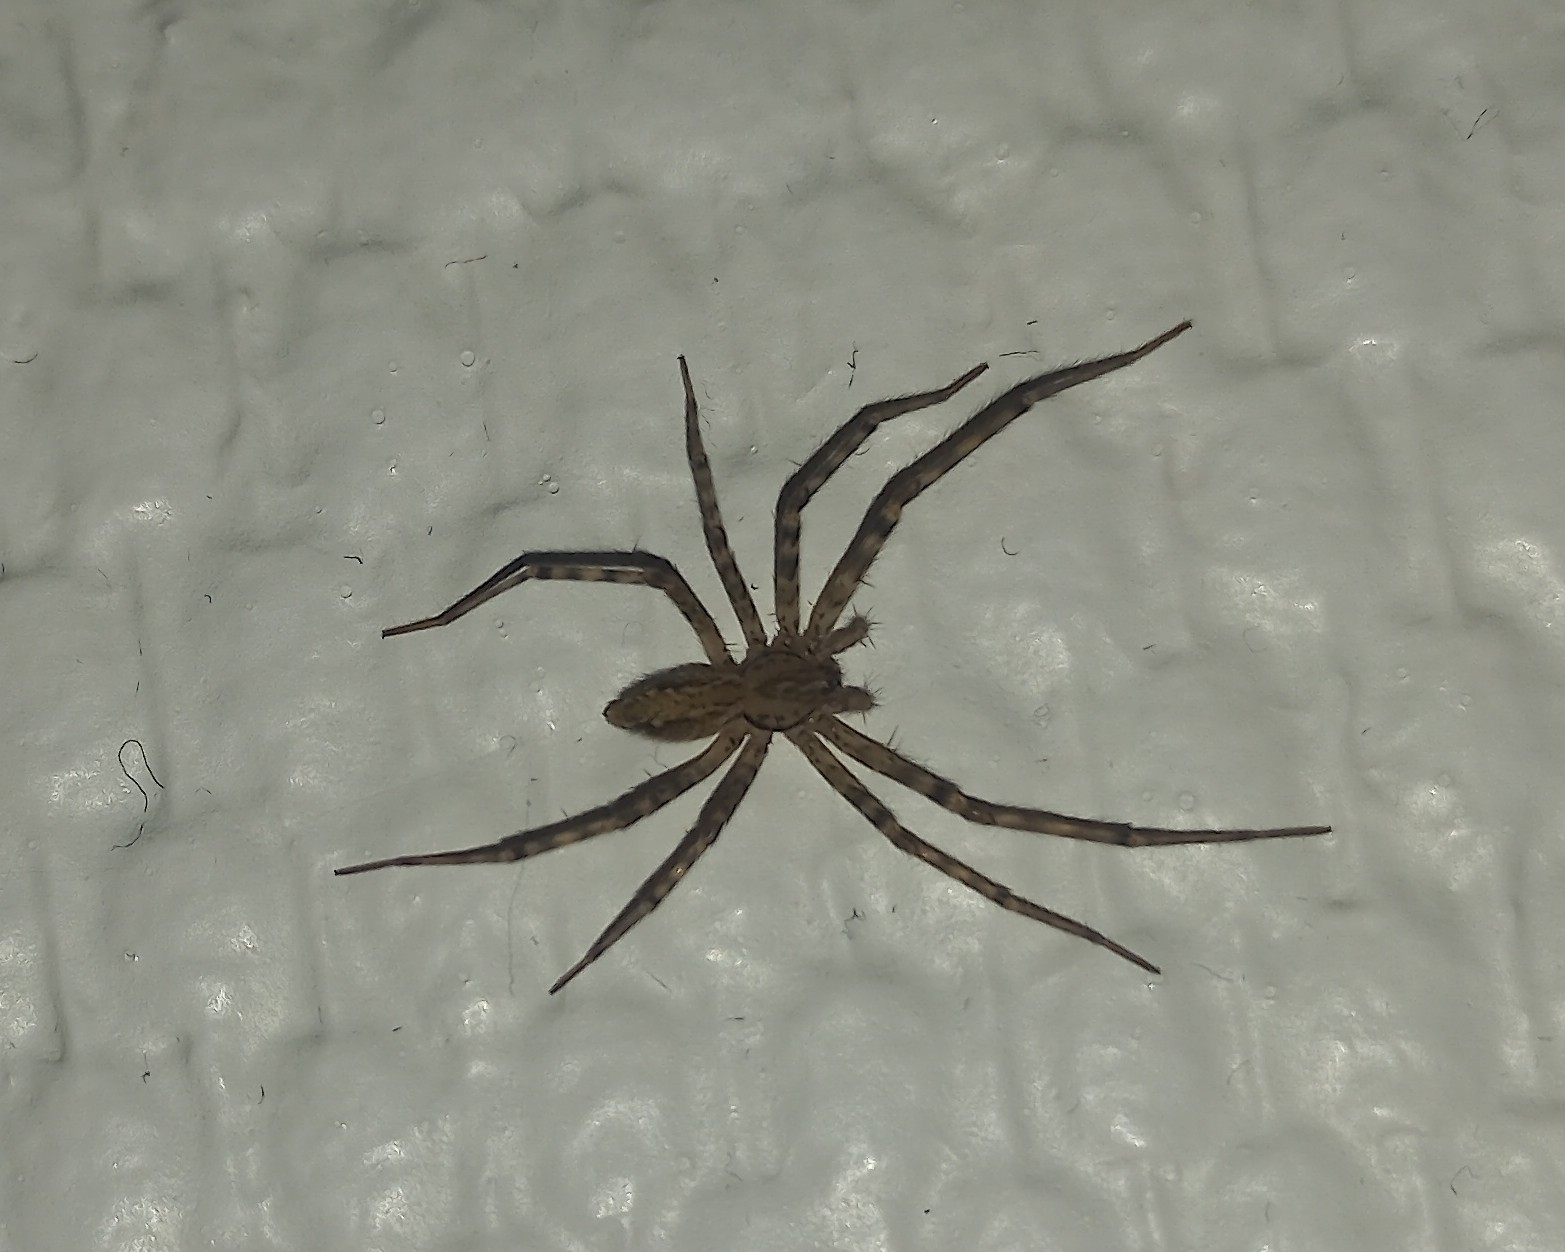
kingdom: Animalia
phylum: Arthropoda
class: Arachnida
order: Araneae
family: Stiphidiidae
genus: Stiphidion
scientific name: Stiphidion facetum
